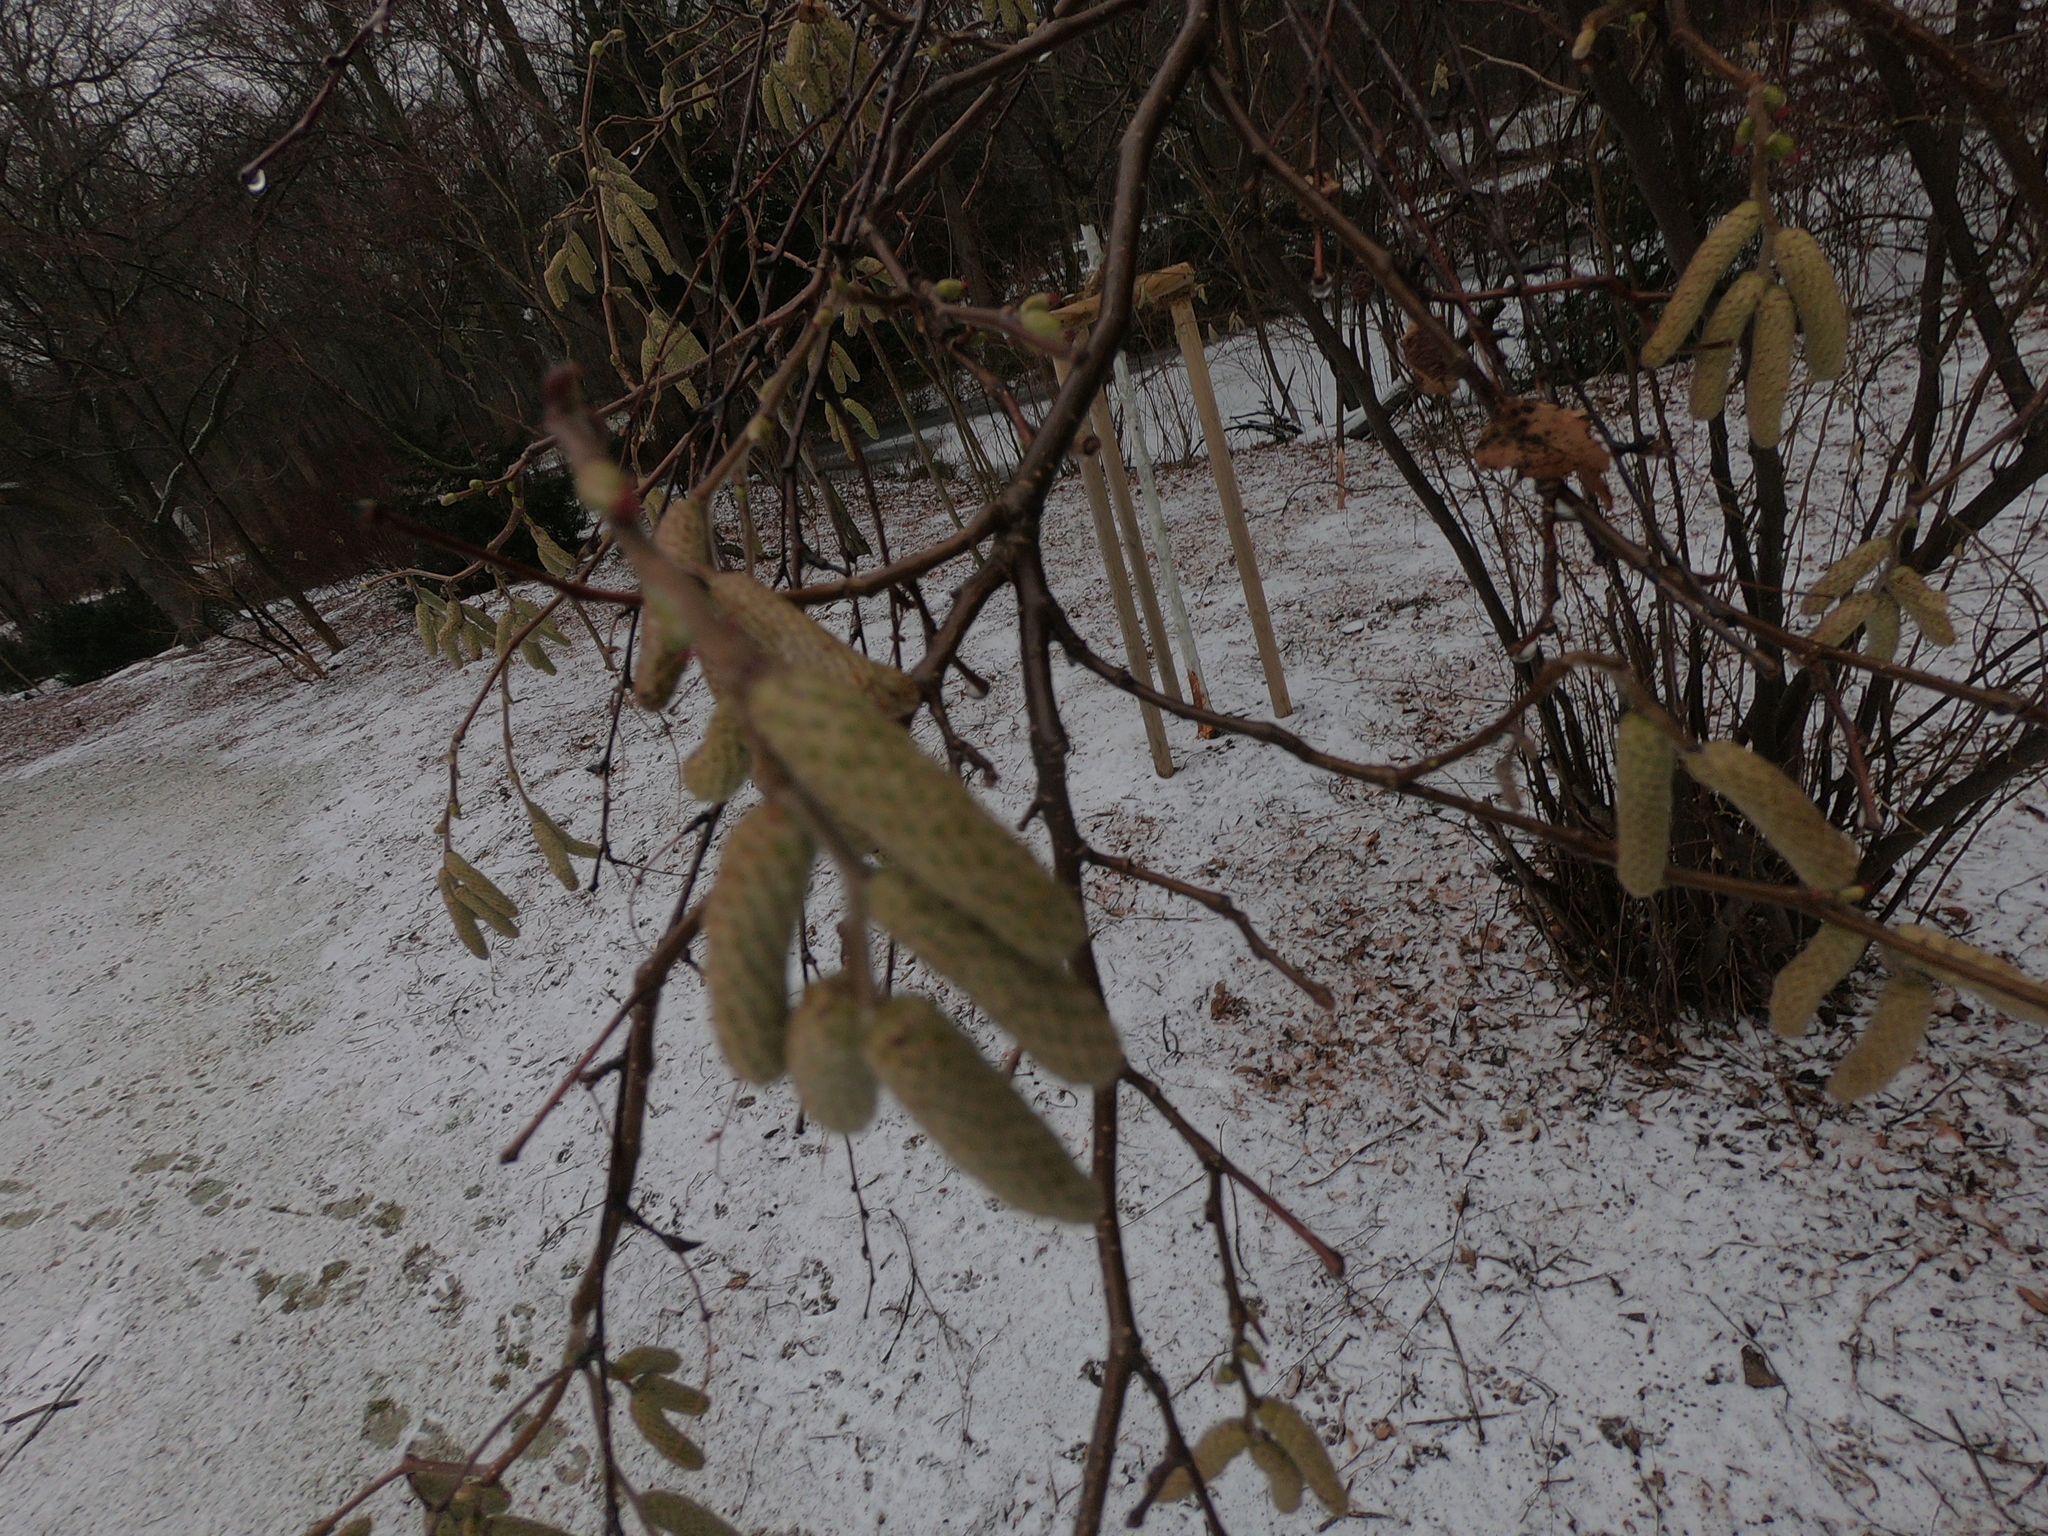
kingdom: Plantae
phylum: Tracheophyta
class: Magnoliopsida
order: Fagales
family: Betulaceae
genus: Corylus
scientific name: Corylus avellana
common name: European hazel
